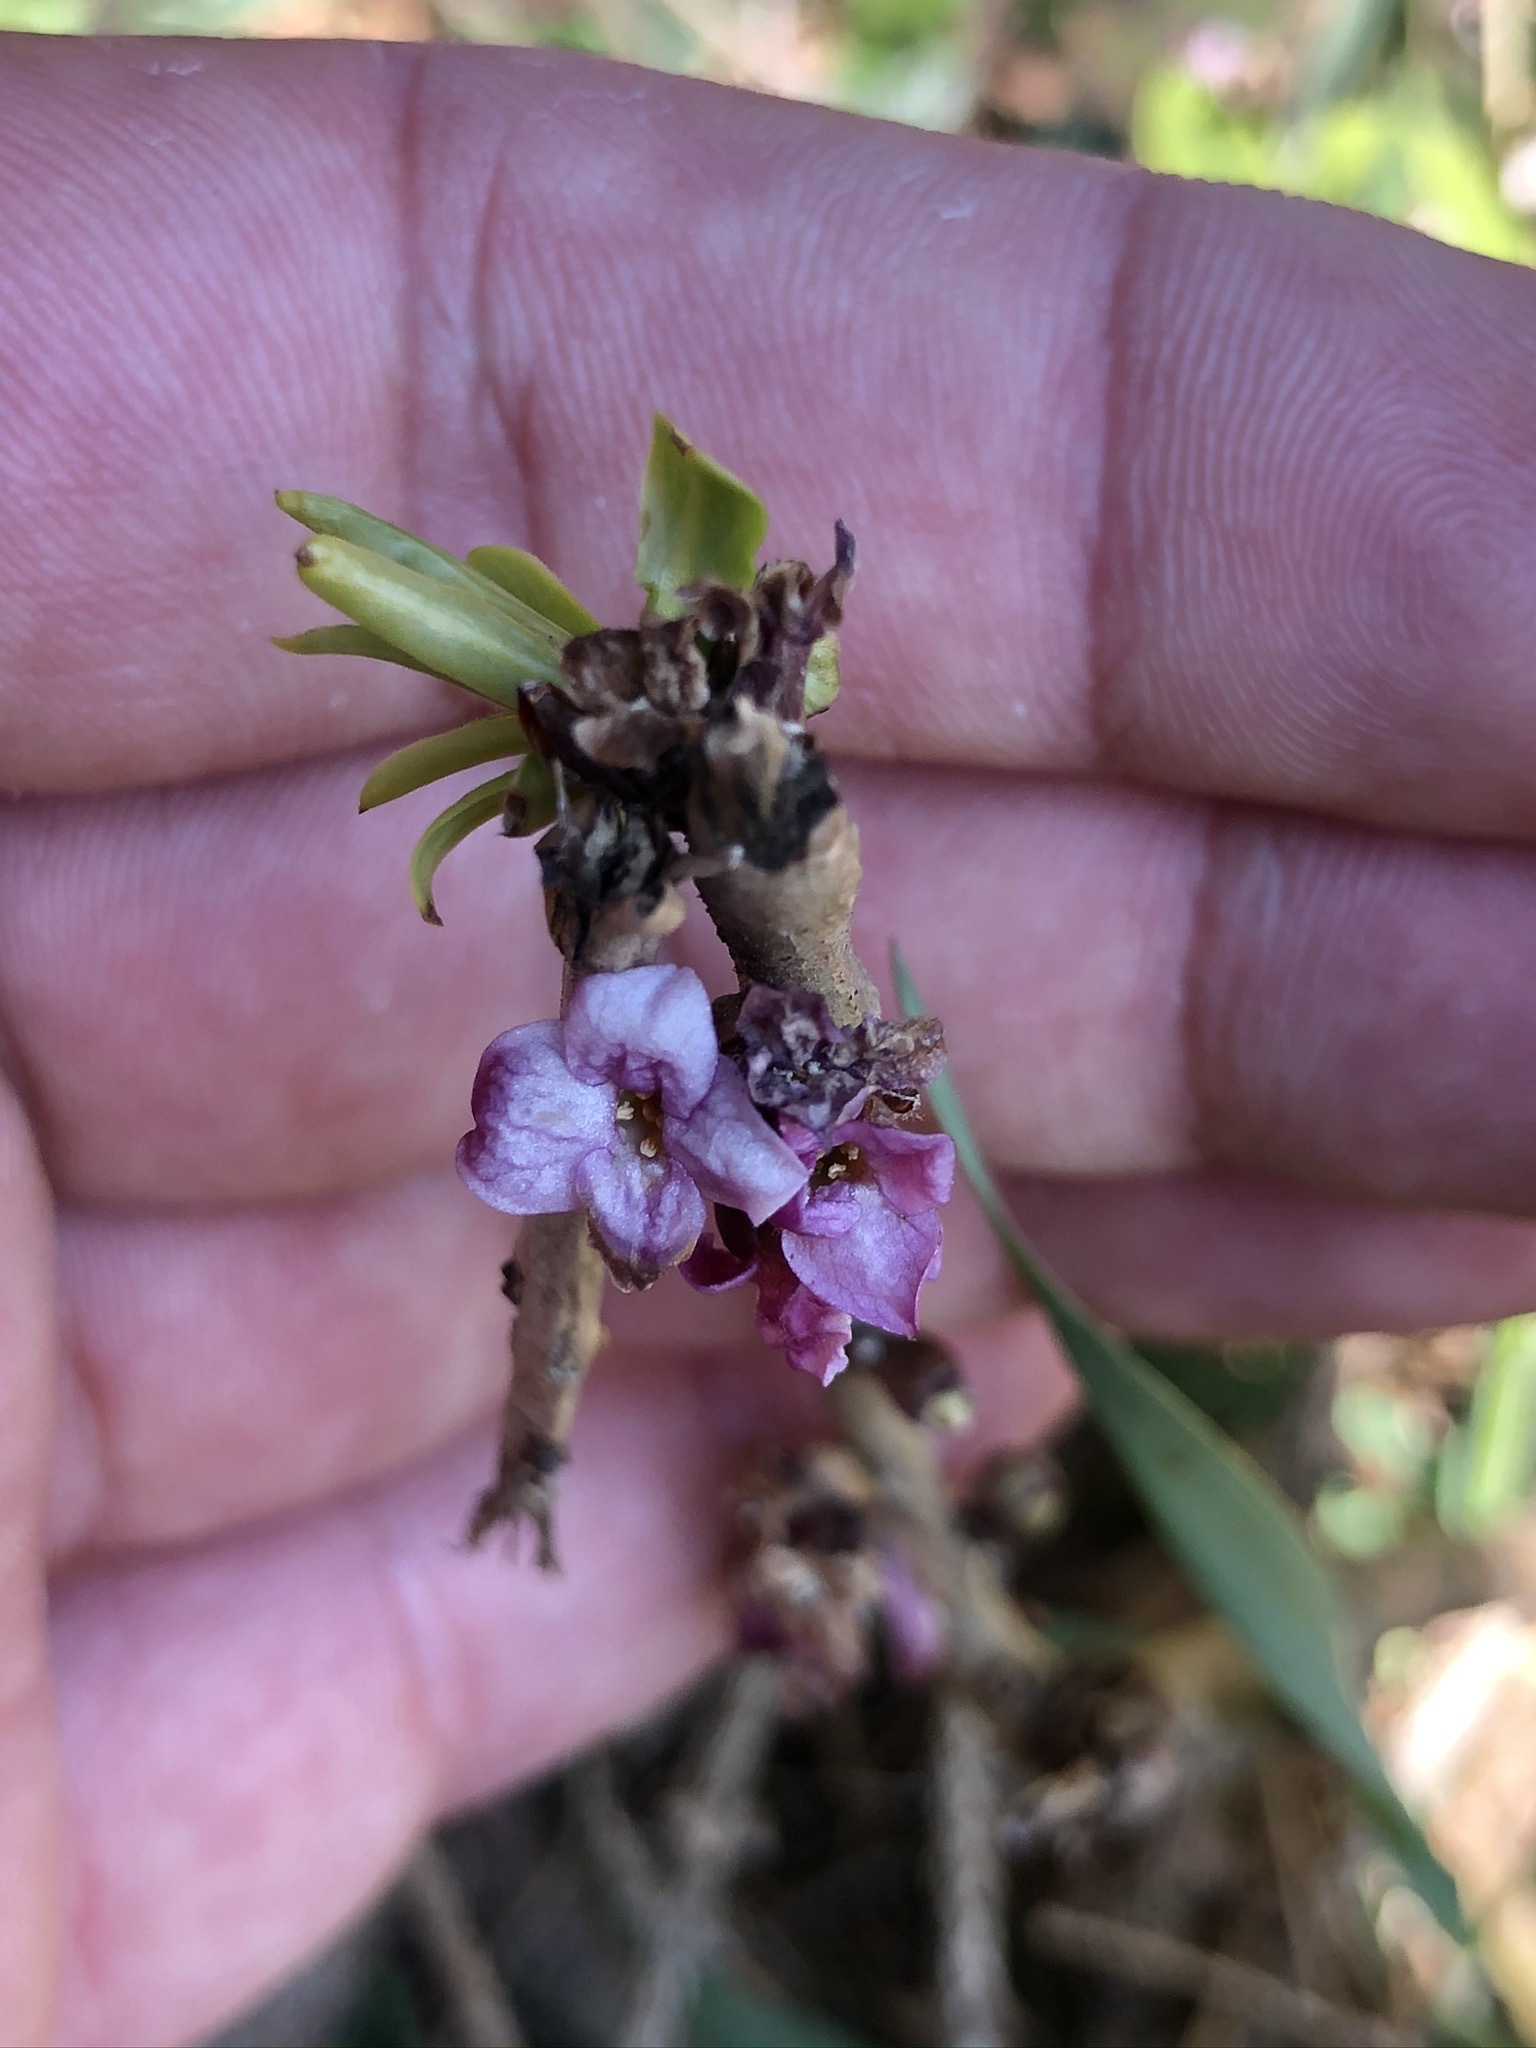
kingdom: Plantae
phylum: Tracheophyta
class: Magnoliopsida
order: Malvales
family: Thymelaeaceae
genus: Daphne
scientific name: Daphne mezereum
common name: Mezereon
